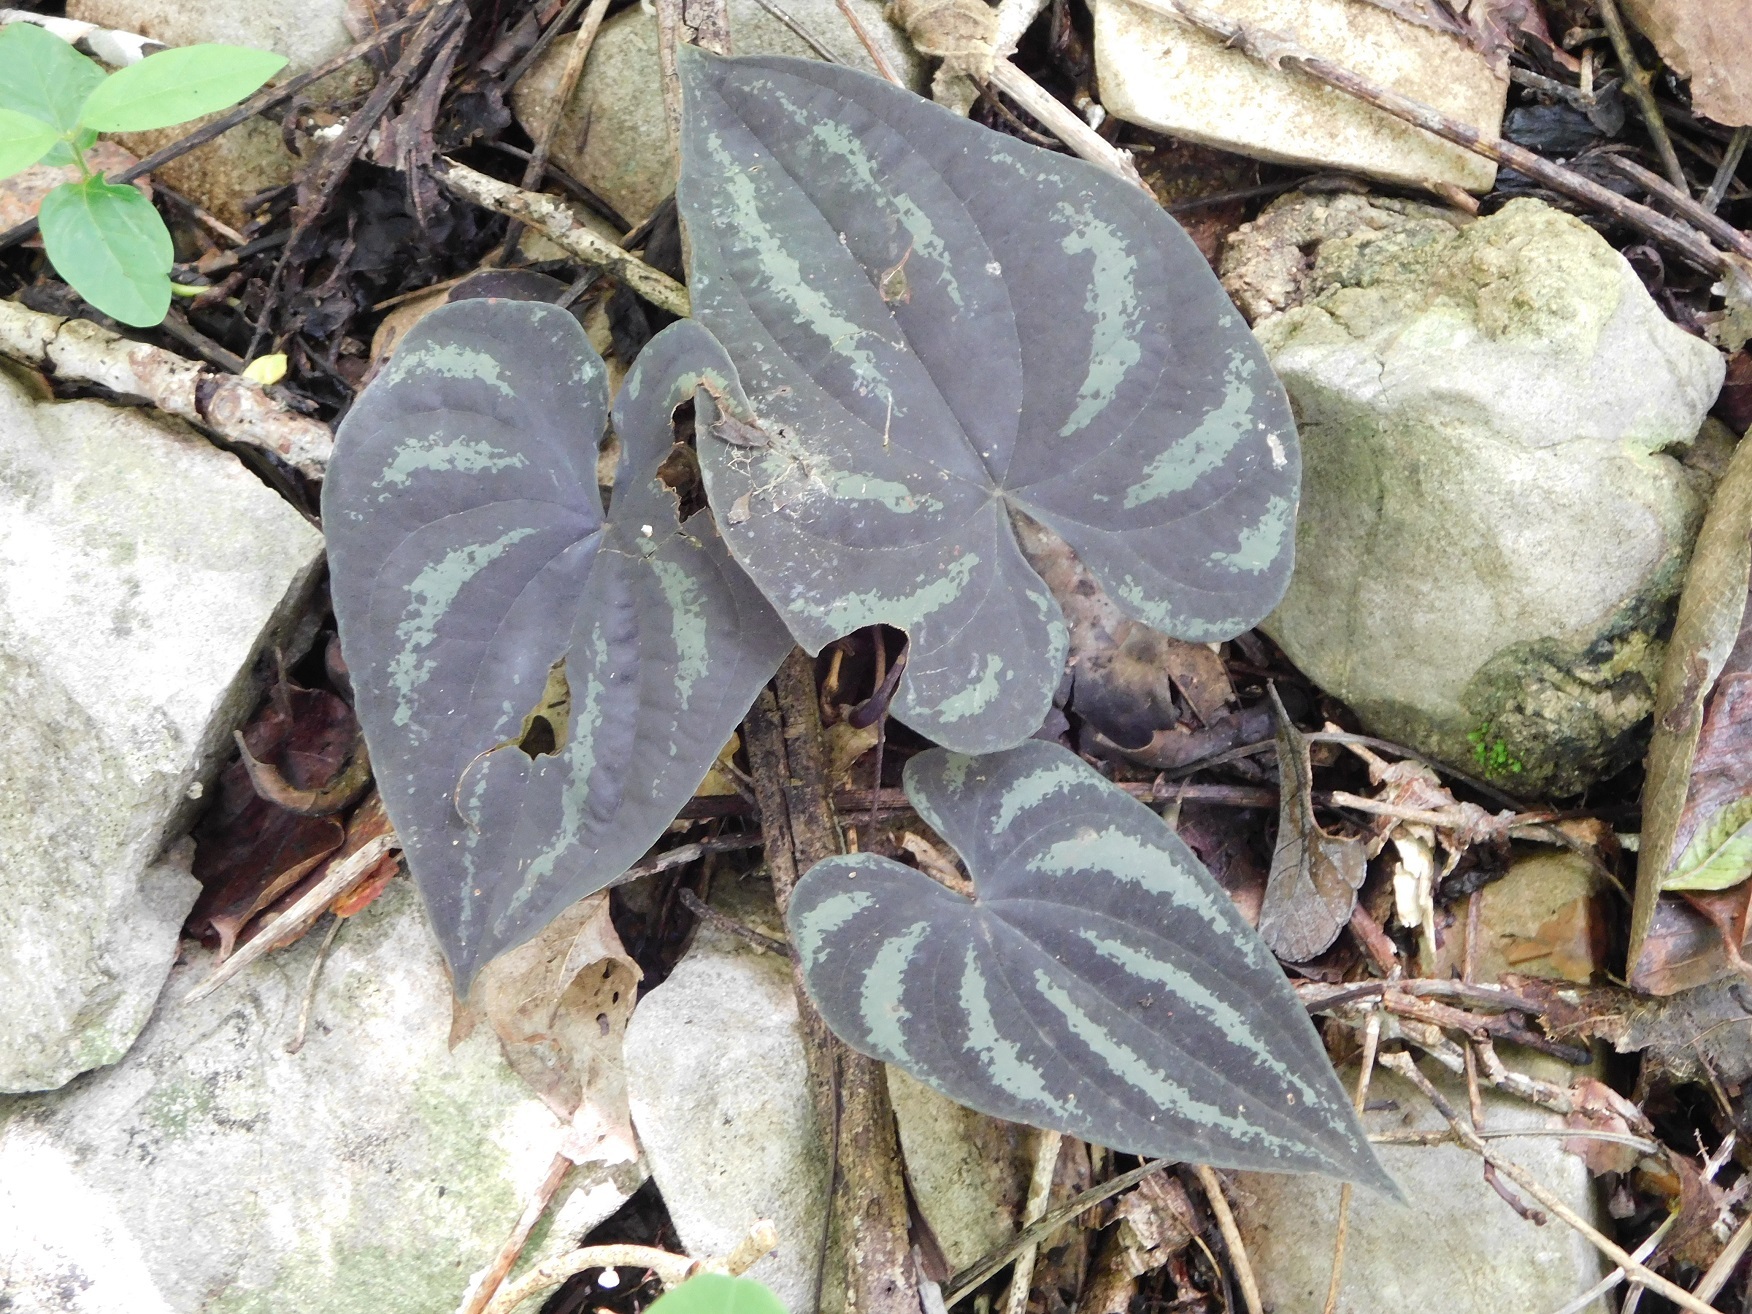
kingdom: Plantae
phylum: Tracheophyta
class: Liliopsida
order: Dioscoreales
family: Dioscoreaceae
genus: Dioscorea
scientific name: Dioscorea cyanisticta
